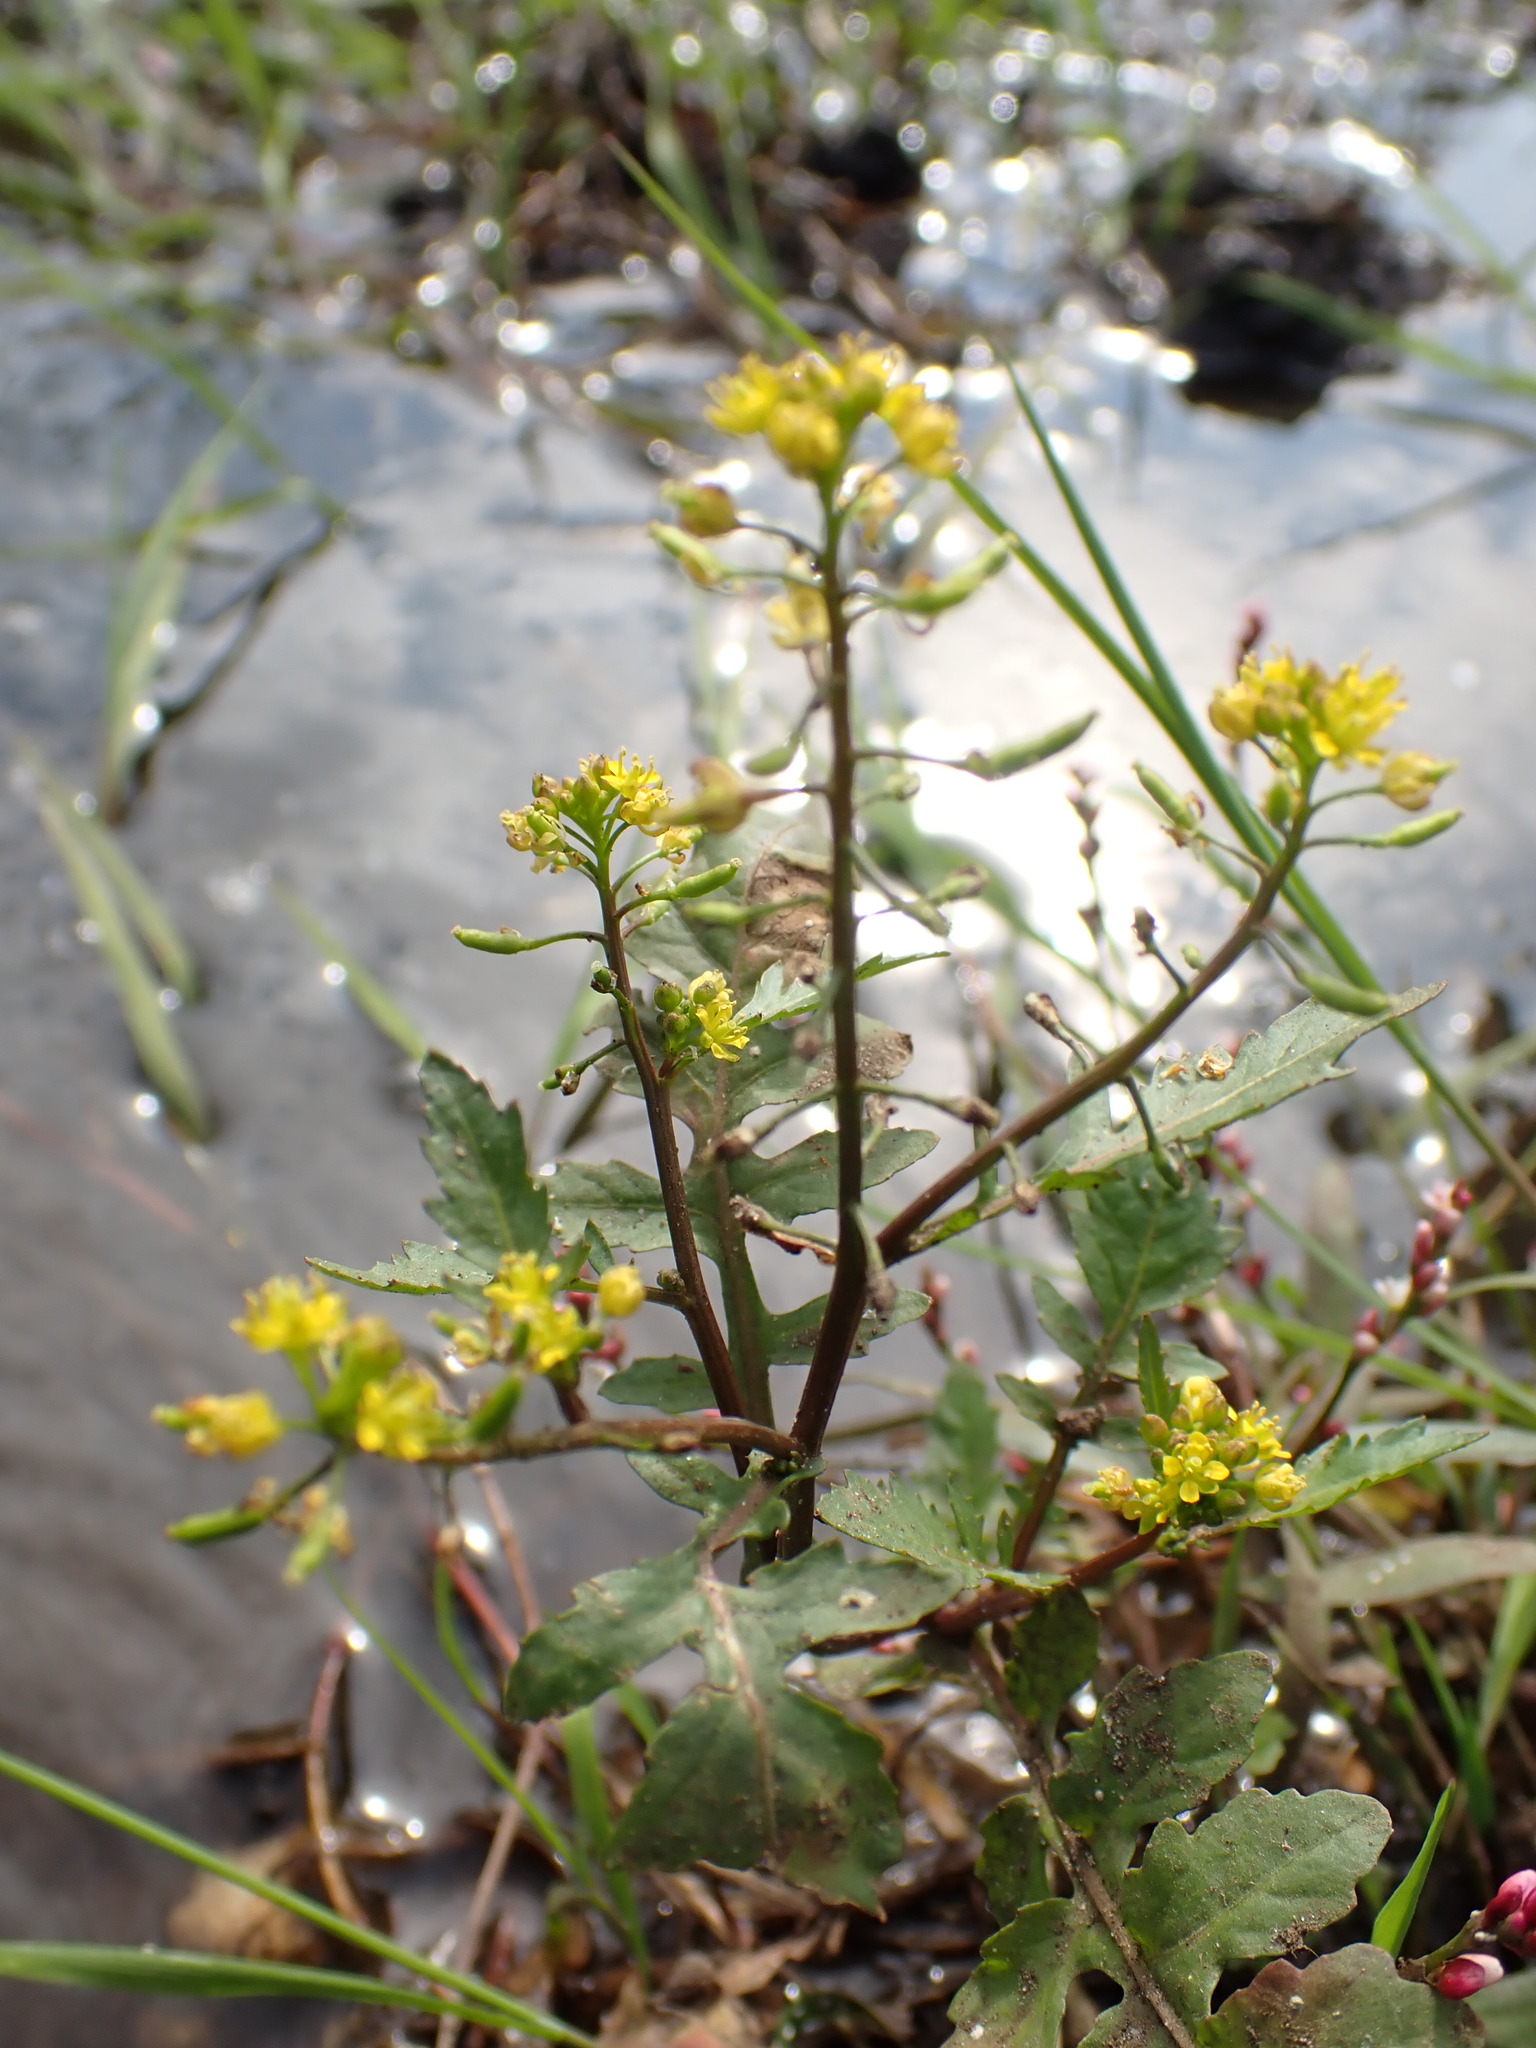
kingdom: Plantae
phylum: Tracheophyta
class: Magnoliopsida
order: Brassicales
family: Brassicaceae
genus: Rorippa
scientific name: Rorippa palustris
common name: Marsh yellow-cress
